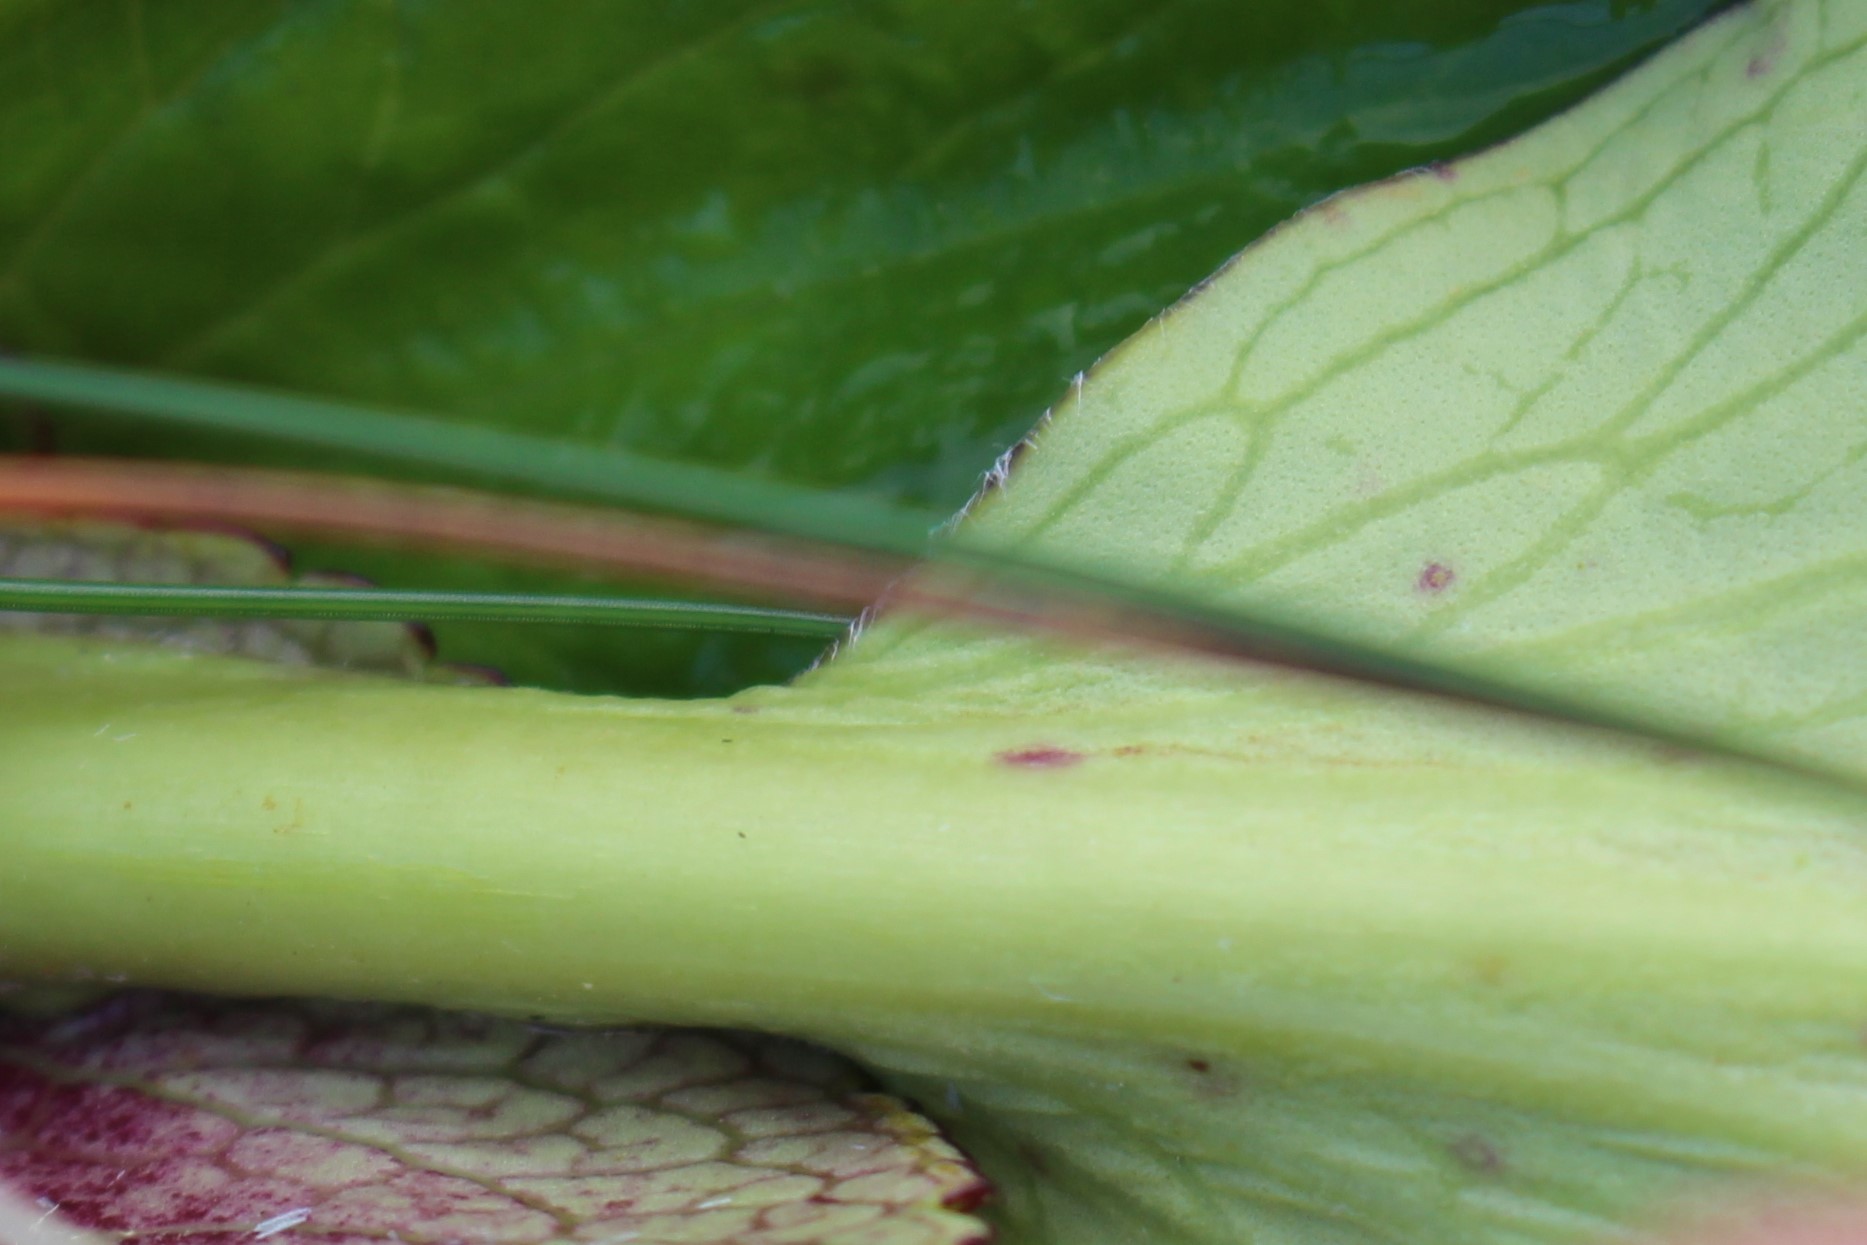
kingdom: Plantae
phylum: Tracheophyta
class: Magnoliopsida
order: Lamiales
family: Plantaginaceae
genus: Ourisia
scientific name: Ourisia calycina
